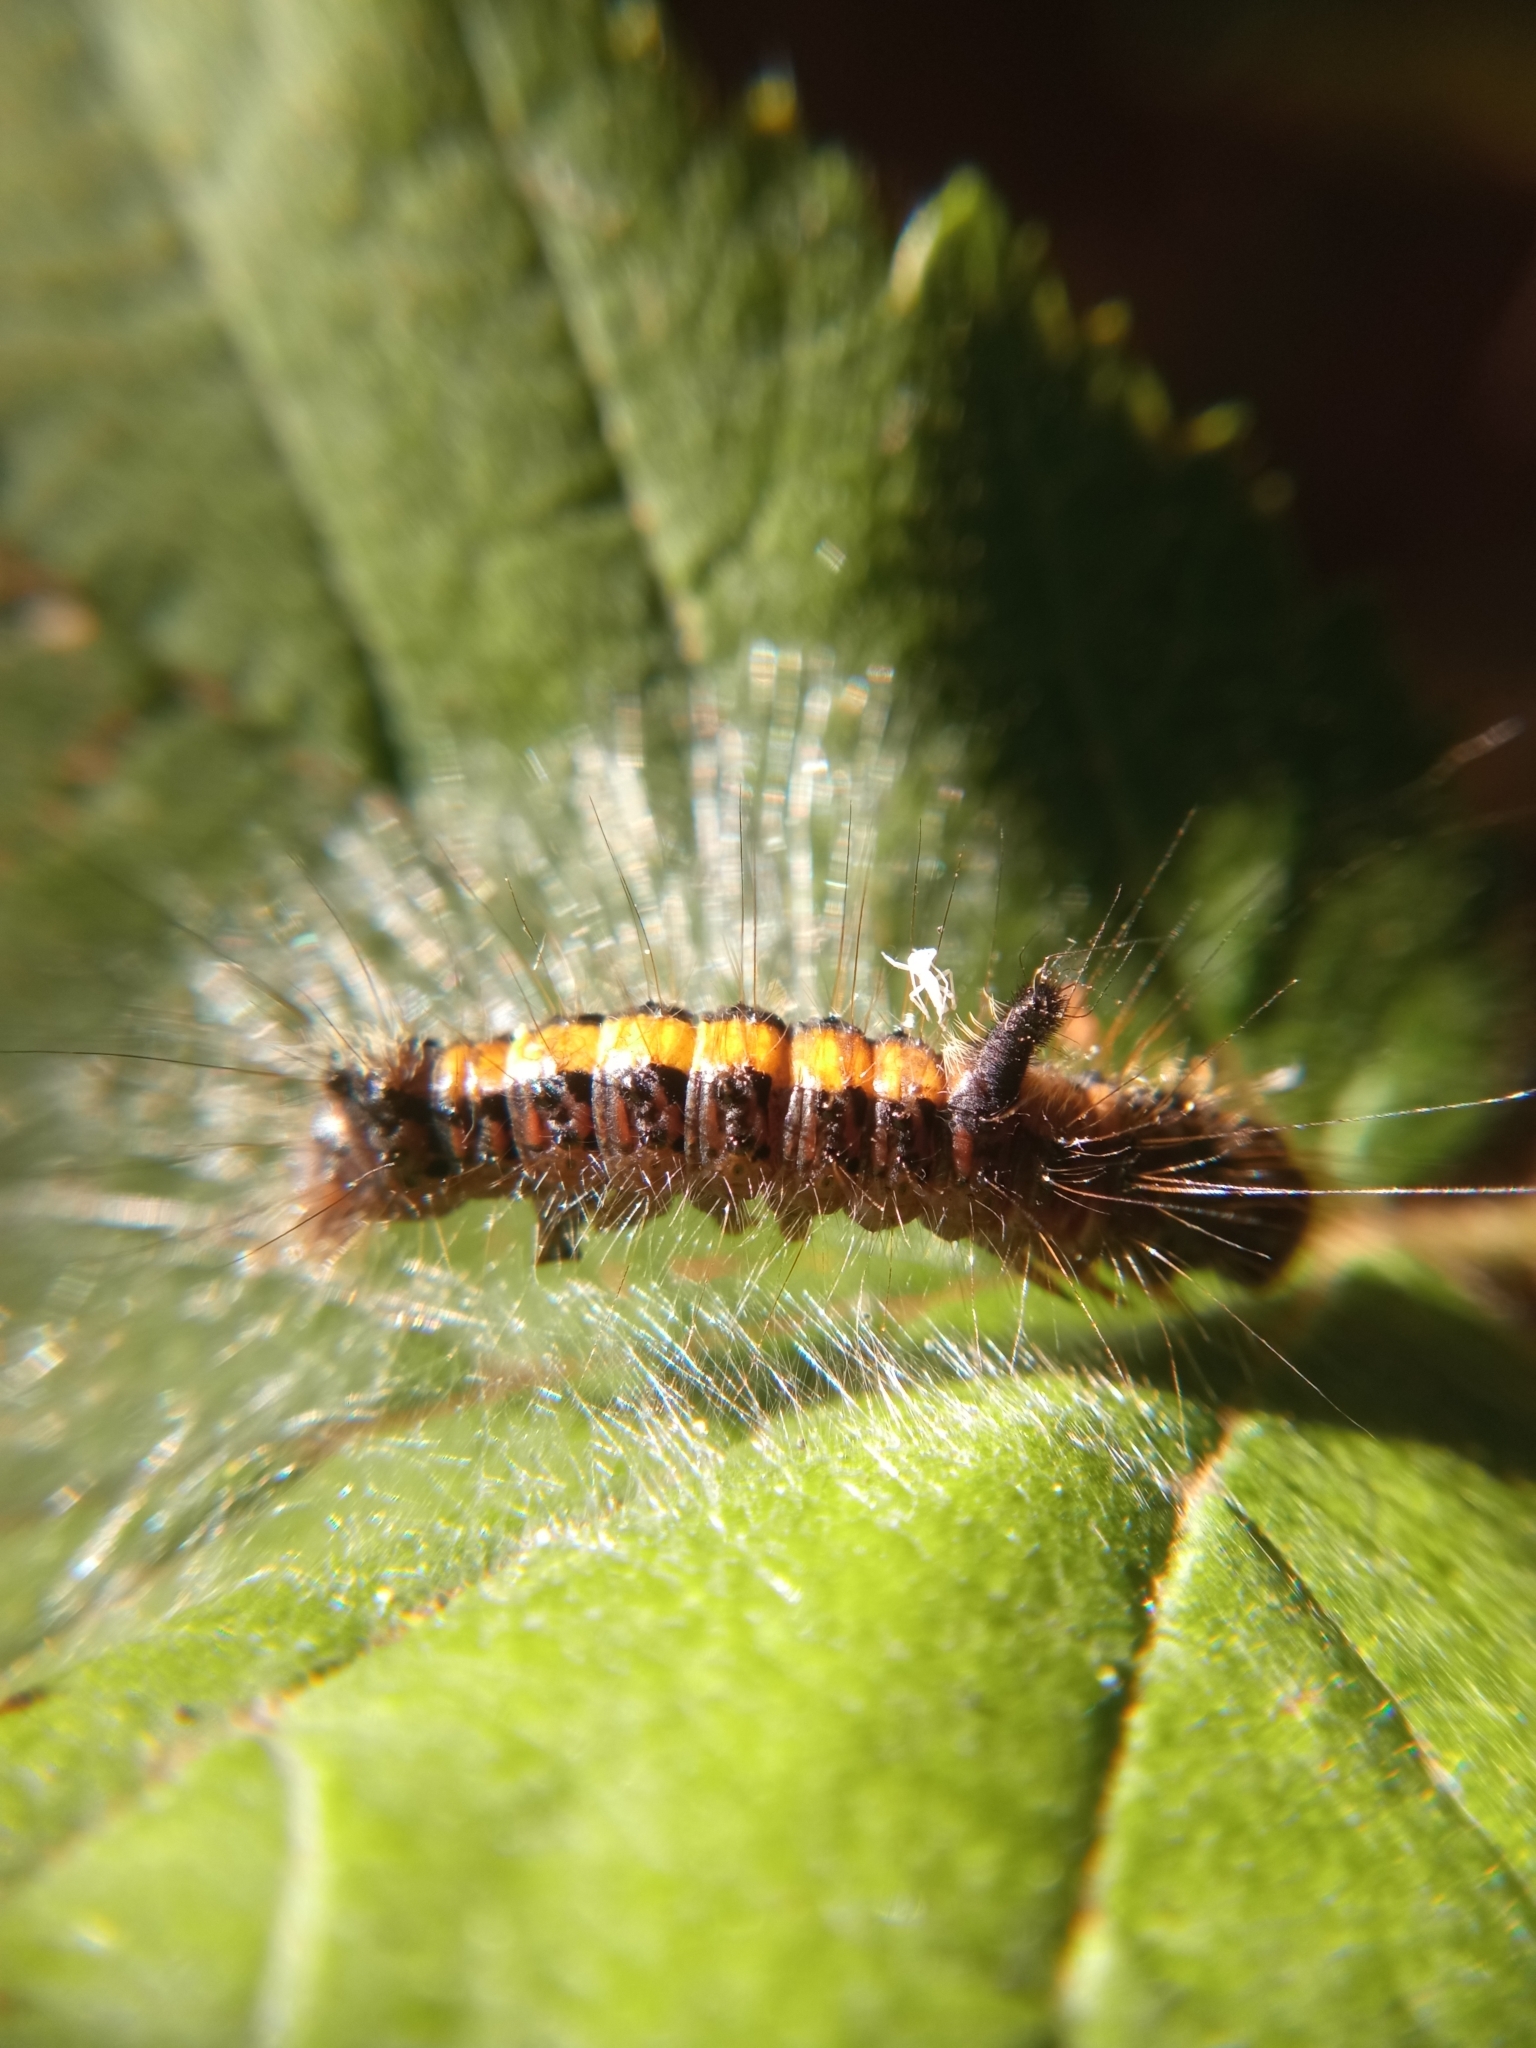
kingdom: Animalia
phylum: Arthropoda
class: Insecta
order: Lepidoptera
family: Noctuidae
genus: Acronicta
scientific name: Acronicta psi
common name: Grey dagger
